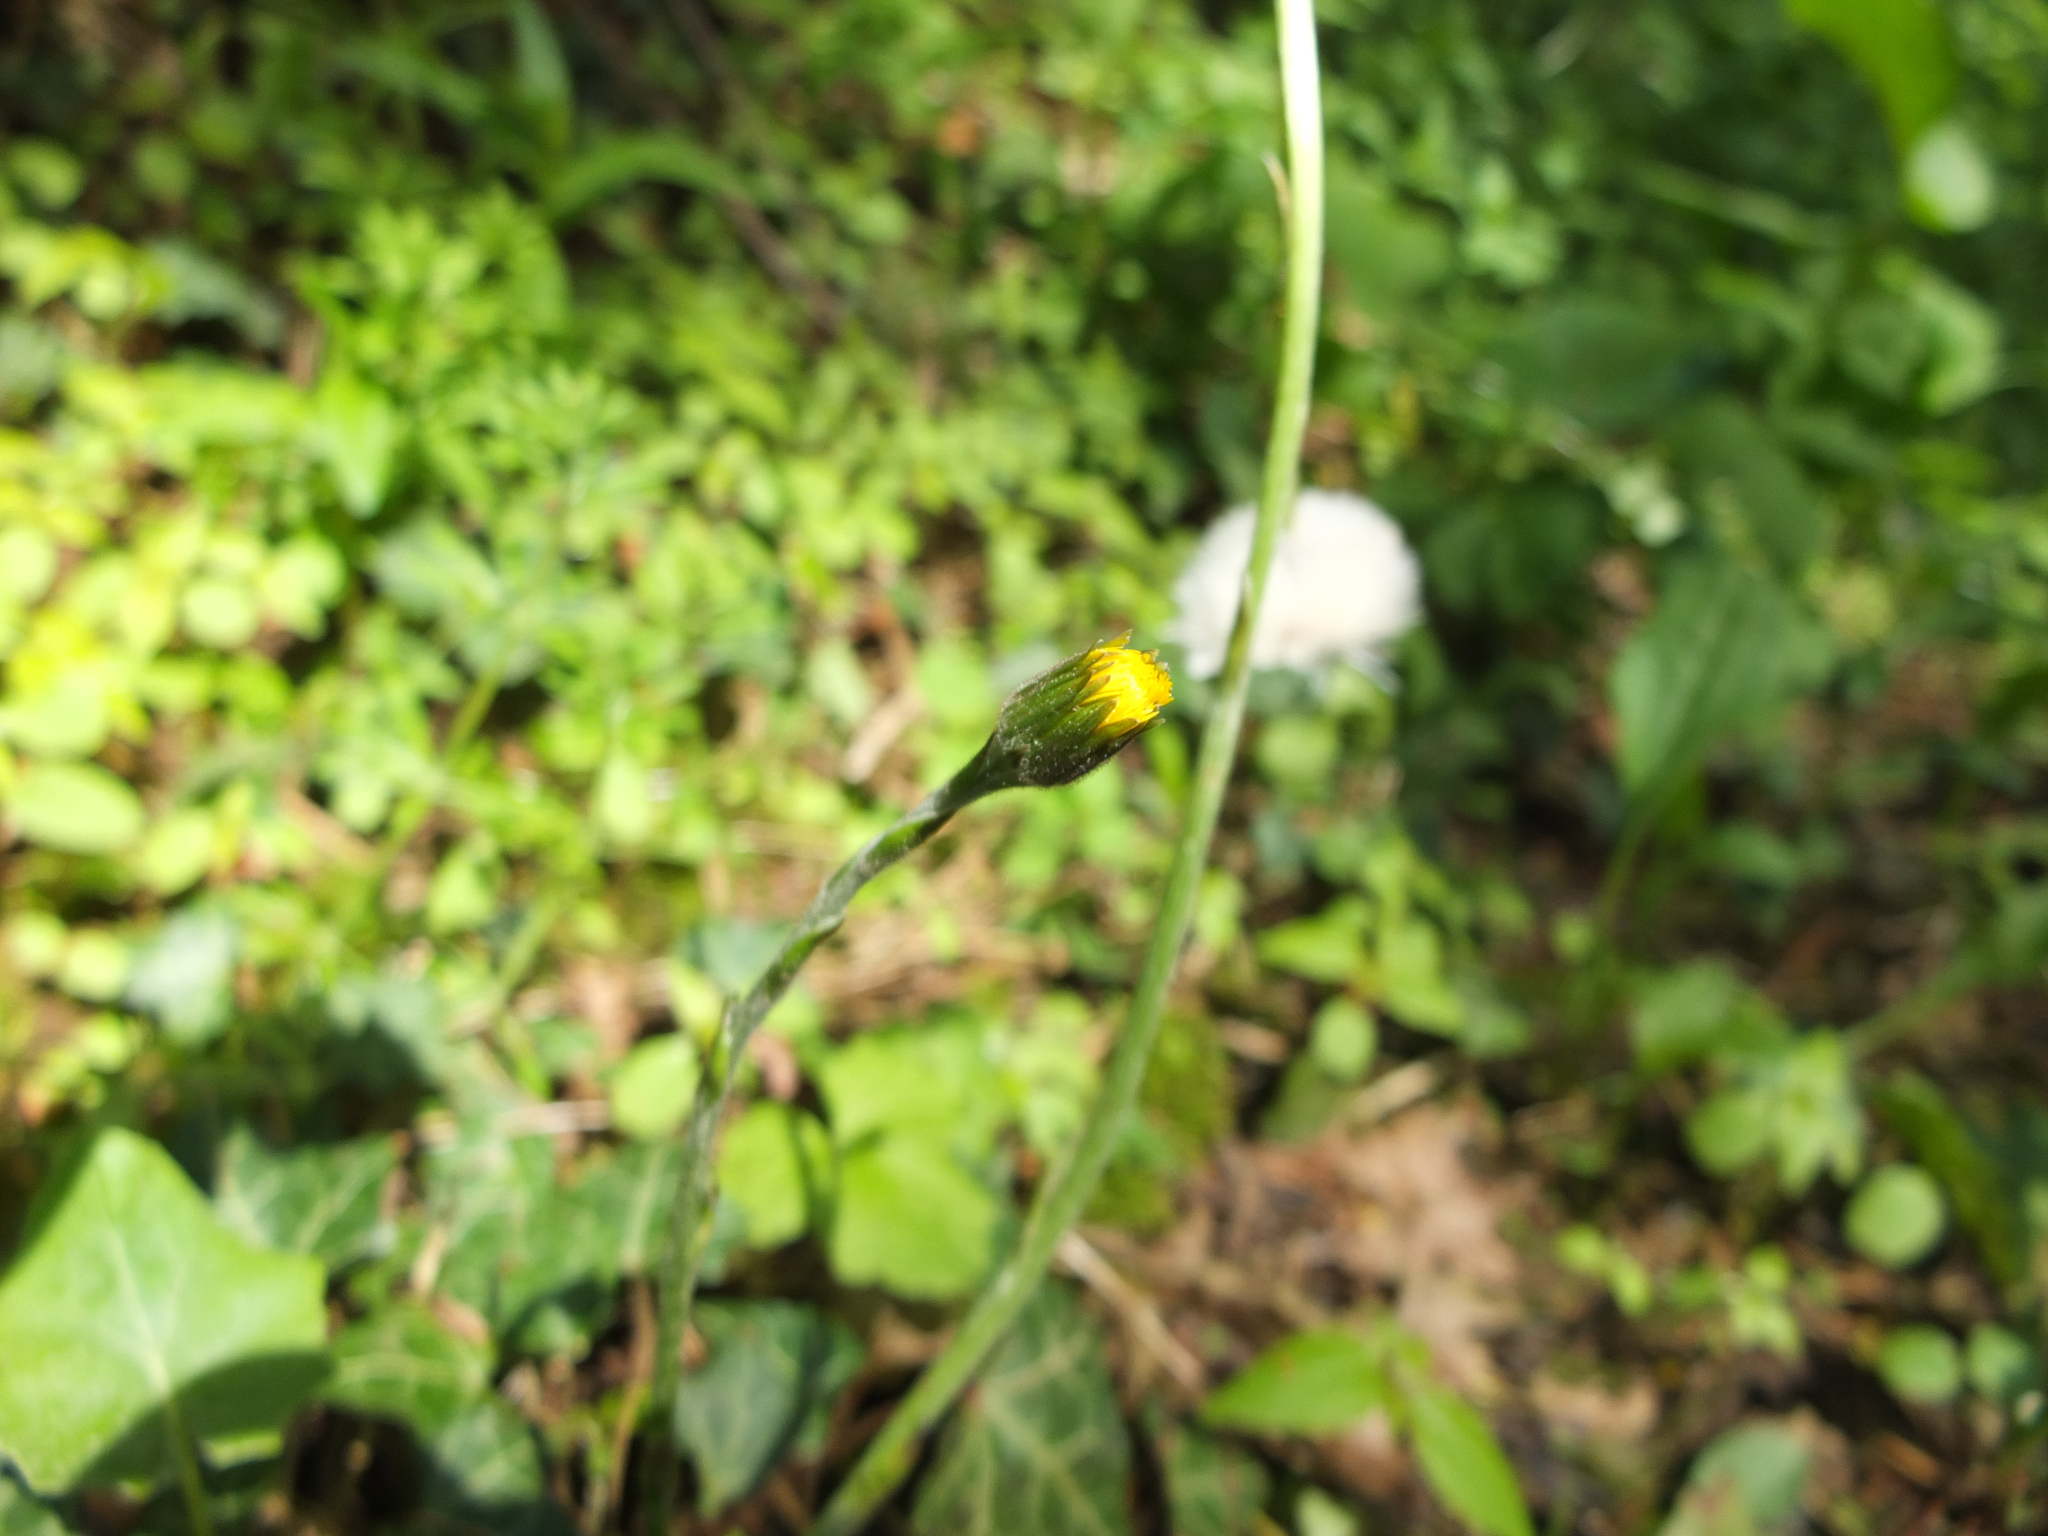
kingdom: Plantae
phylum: Tracheophyta
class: Magnoliopsida
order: Asterales
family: Asteraceae
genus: Tussilago
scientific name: Tussilago farfara
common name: Coltsfoot
